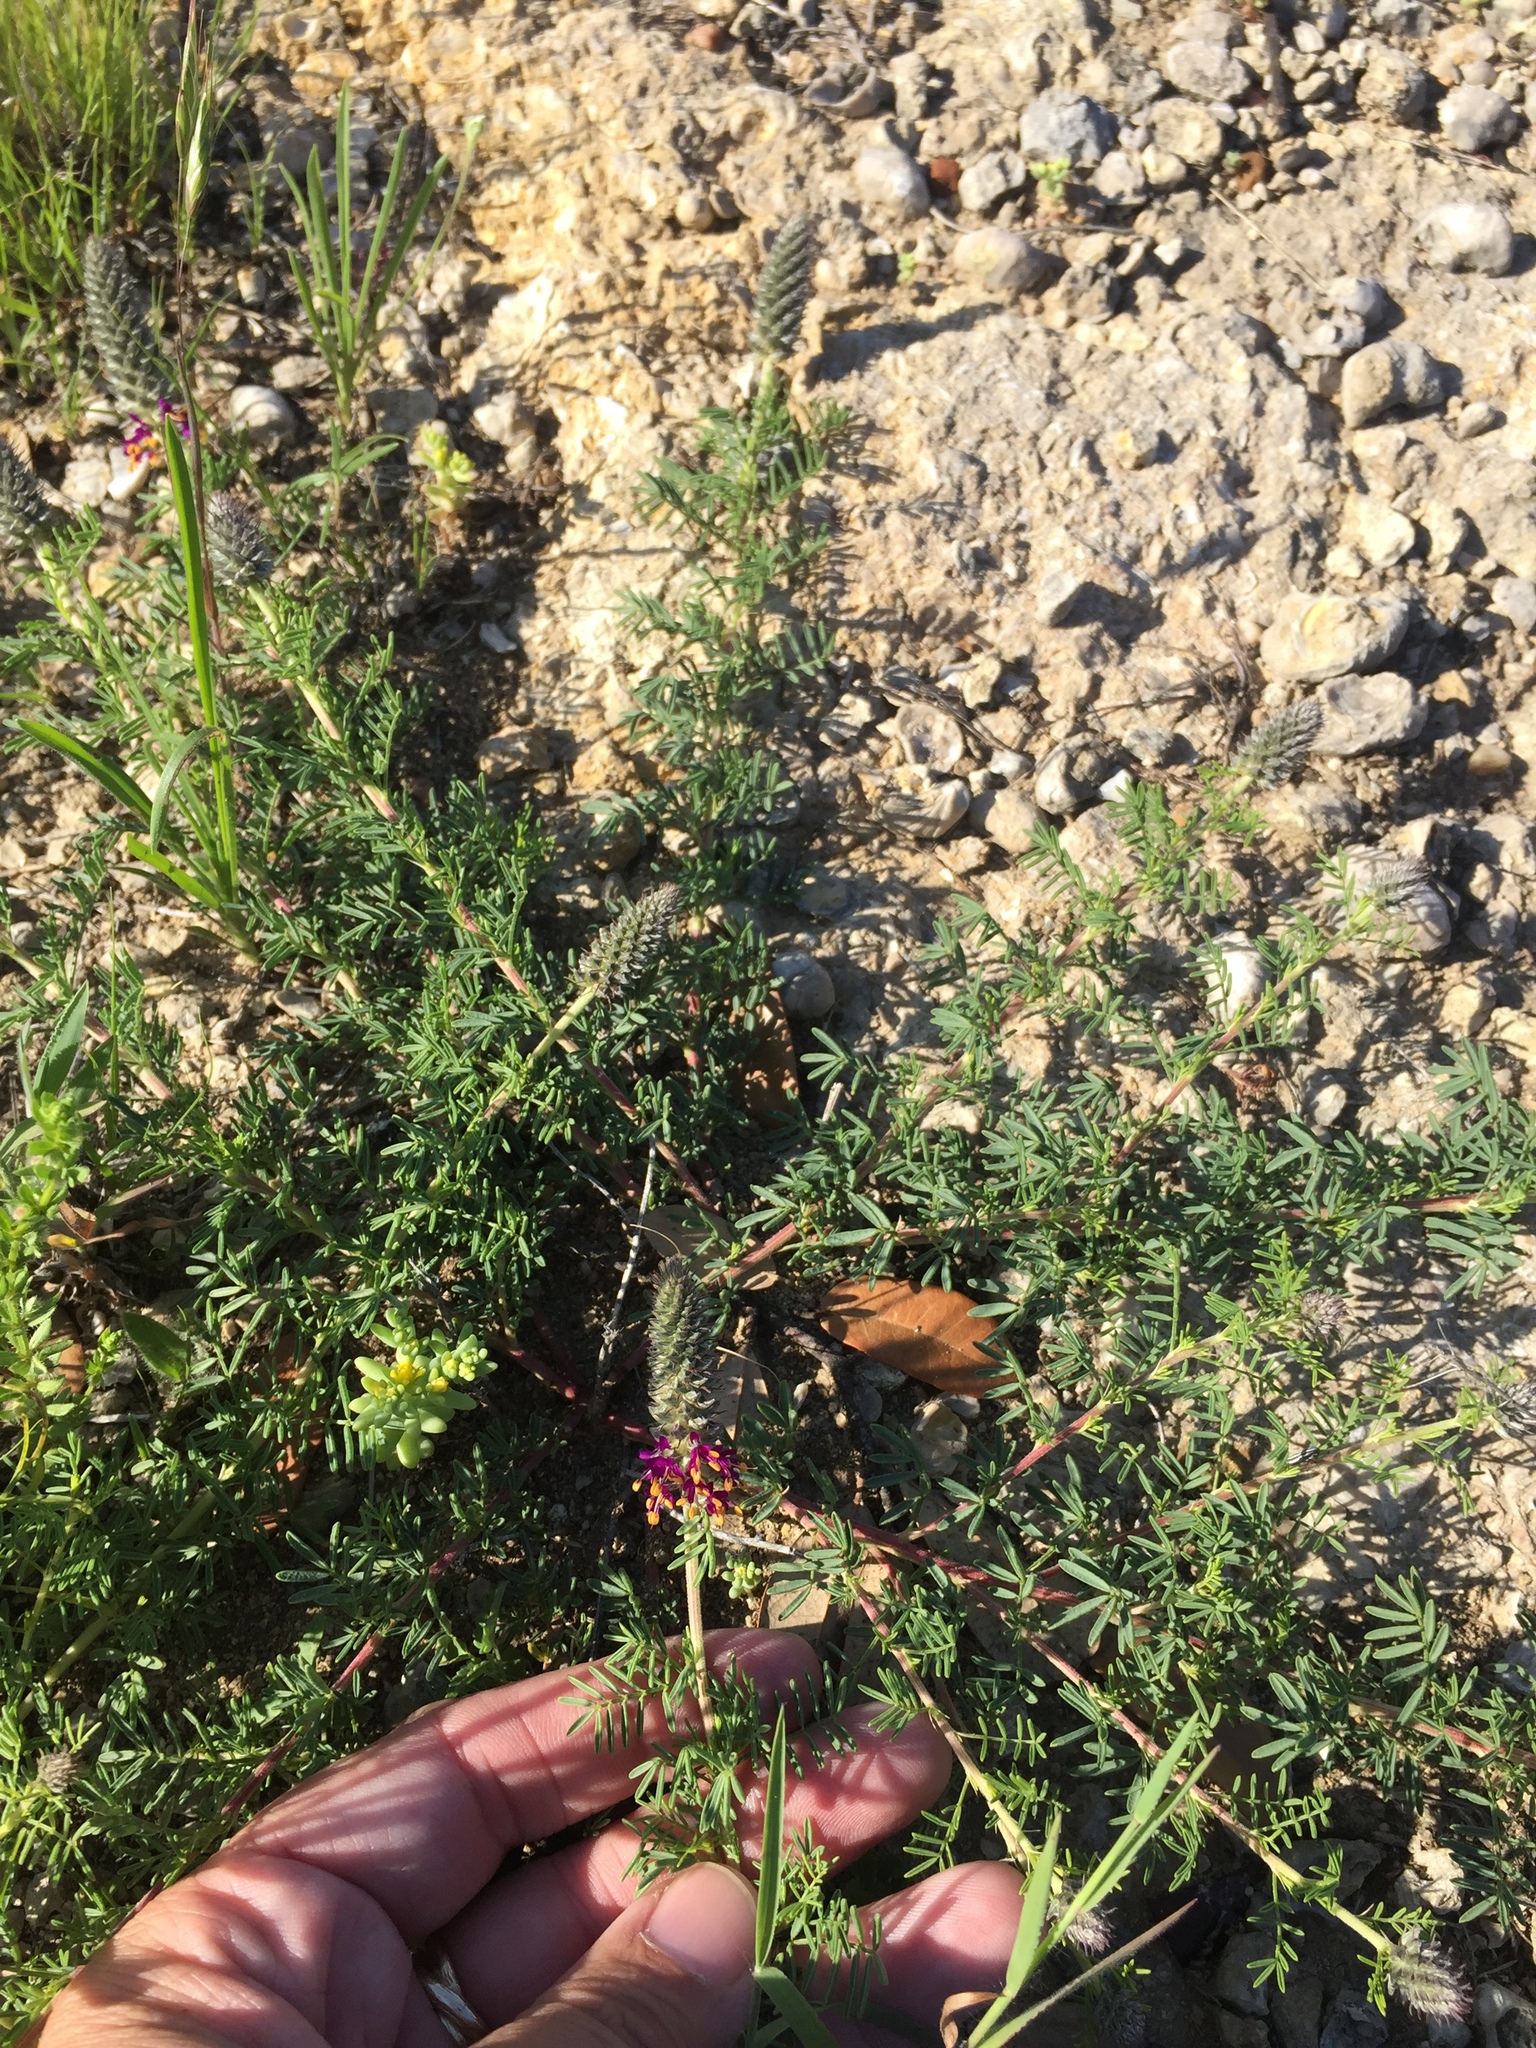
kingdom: Plantae
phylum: Tracheophyta
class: Magnoliopsida
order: Fabales
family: Fabaceae
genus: Dalea
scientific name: Dalea reverchonii
